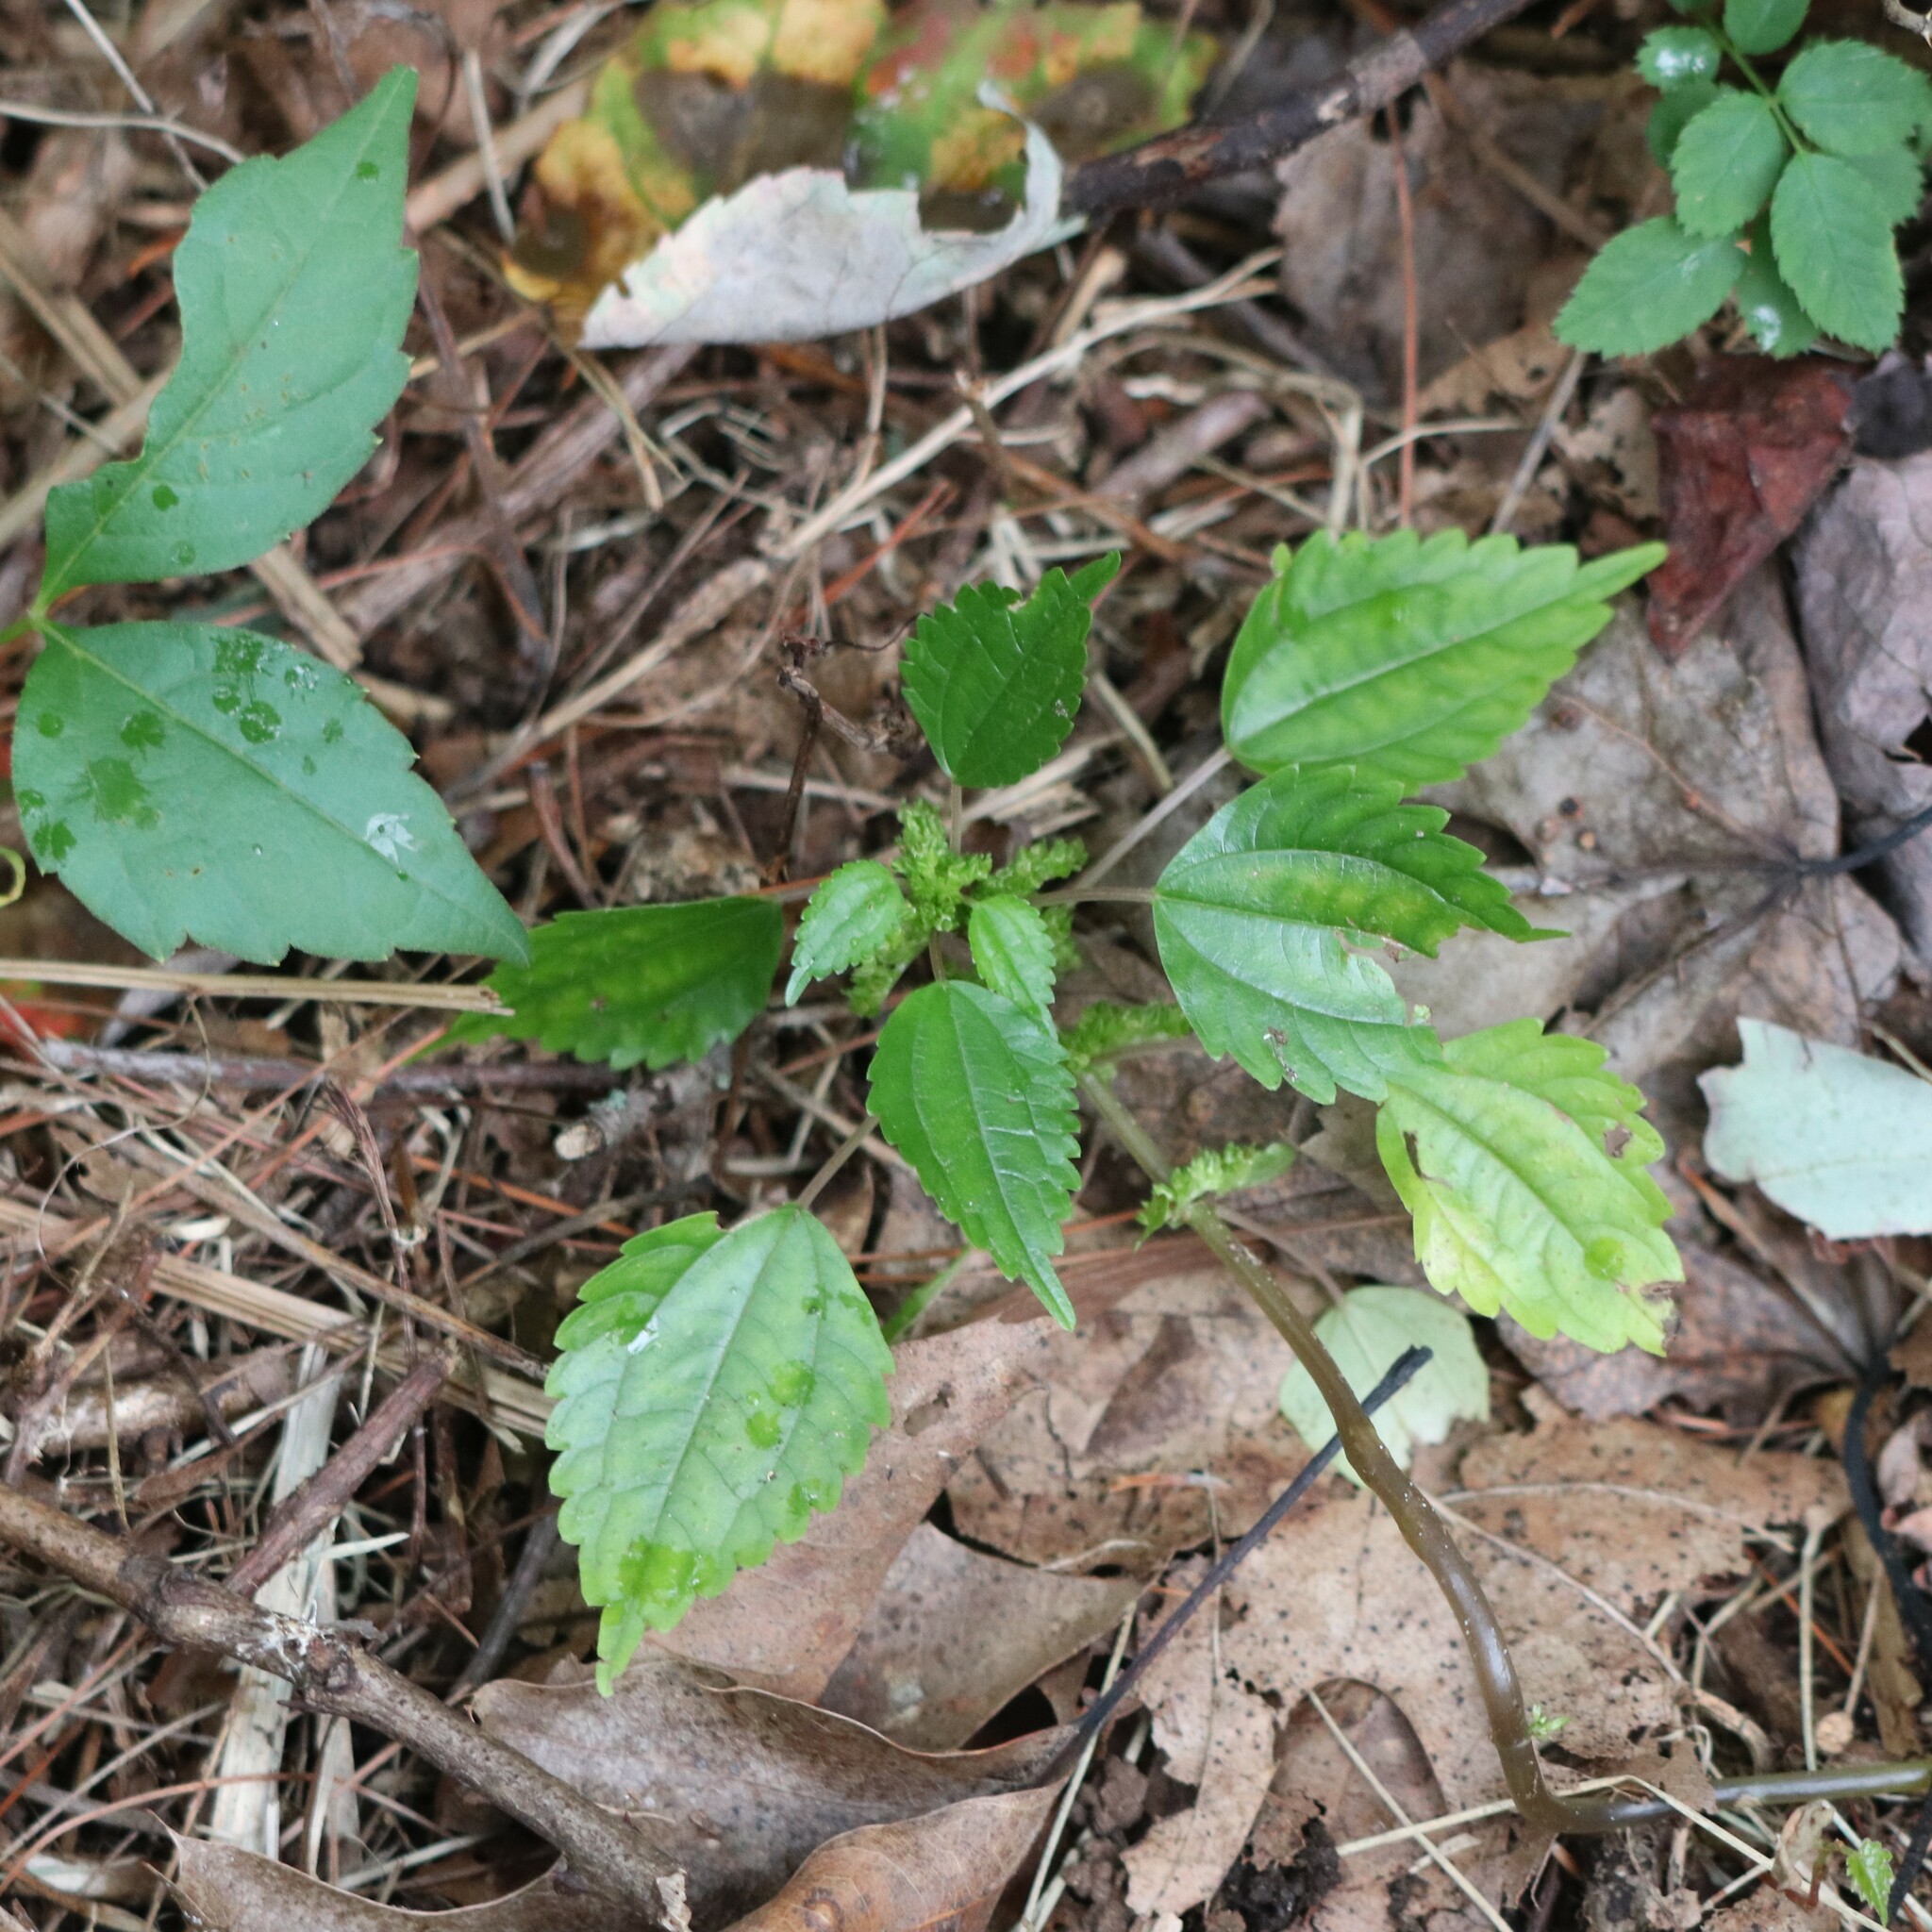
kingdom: Plantae
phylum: Tracheophyta
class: Magnoliopsida
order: Rosales
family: Urticaceae
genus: Pilea
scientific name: Pilea pumila
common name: Clearweed
